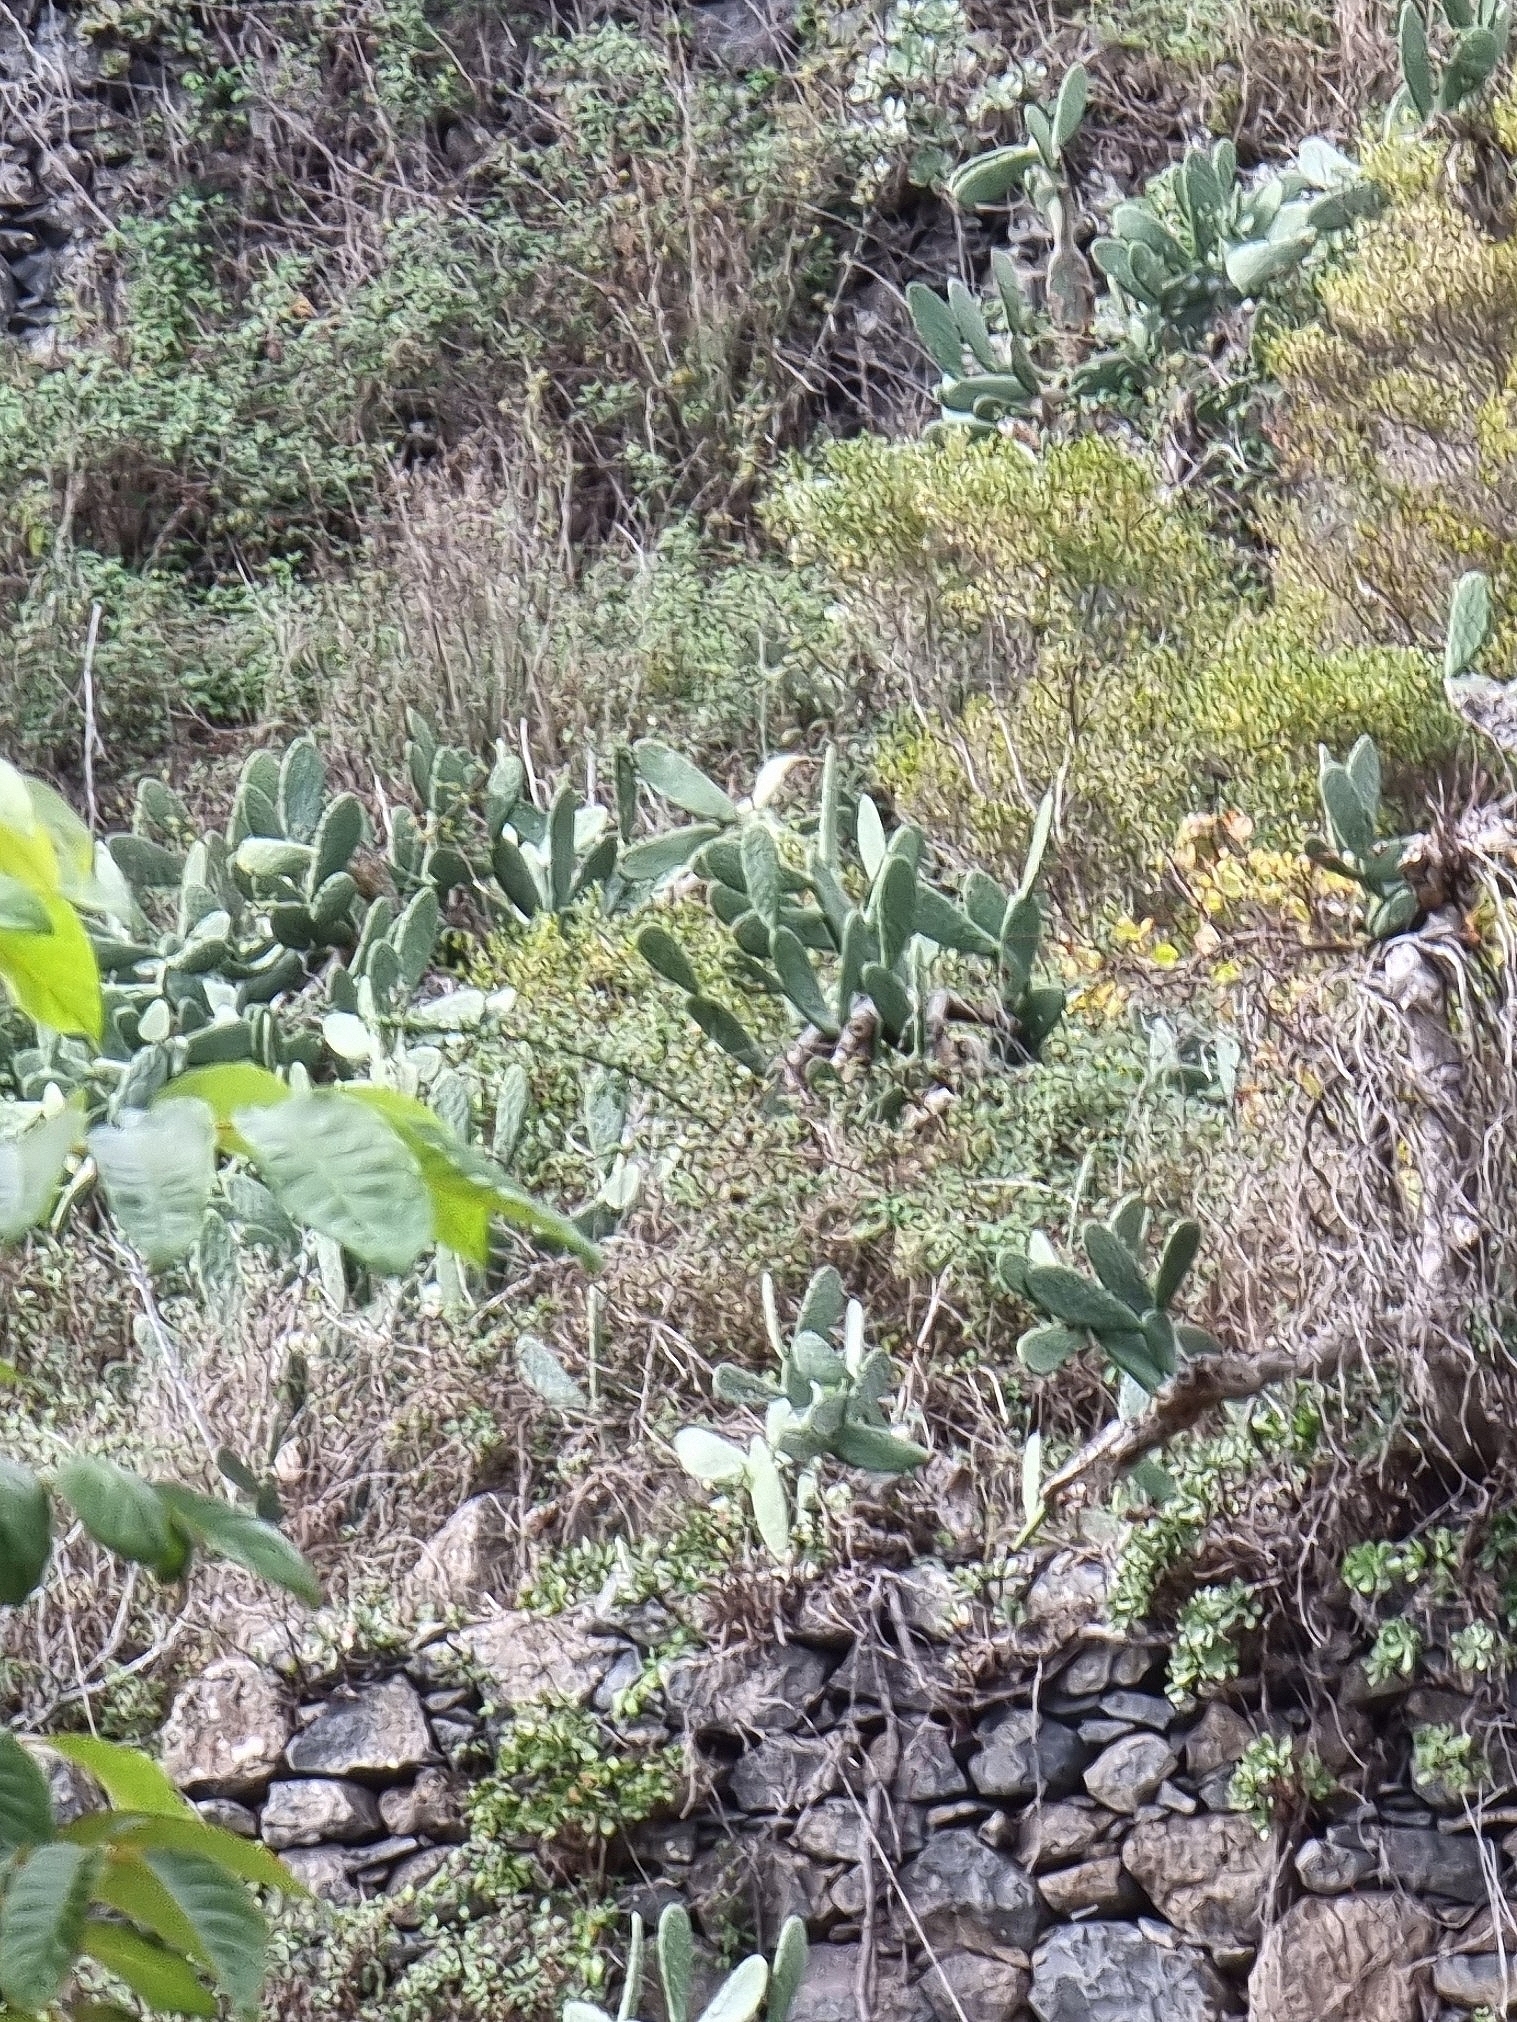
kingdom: Plantae
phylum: Tracheophyta
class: Magnoliopsida
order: Caryophyllales
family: Cactaceae
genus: Opuntia
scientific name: Opuntia ficus-indica
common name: Barbary fig
